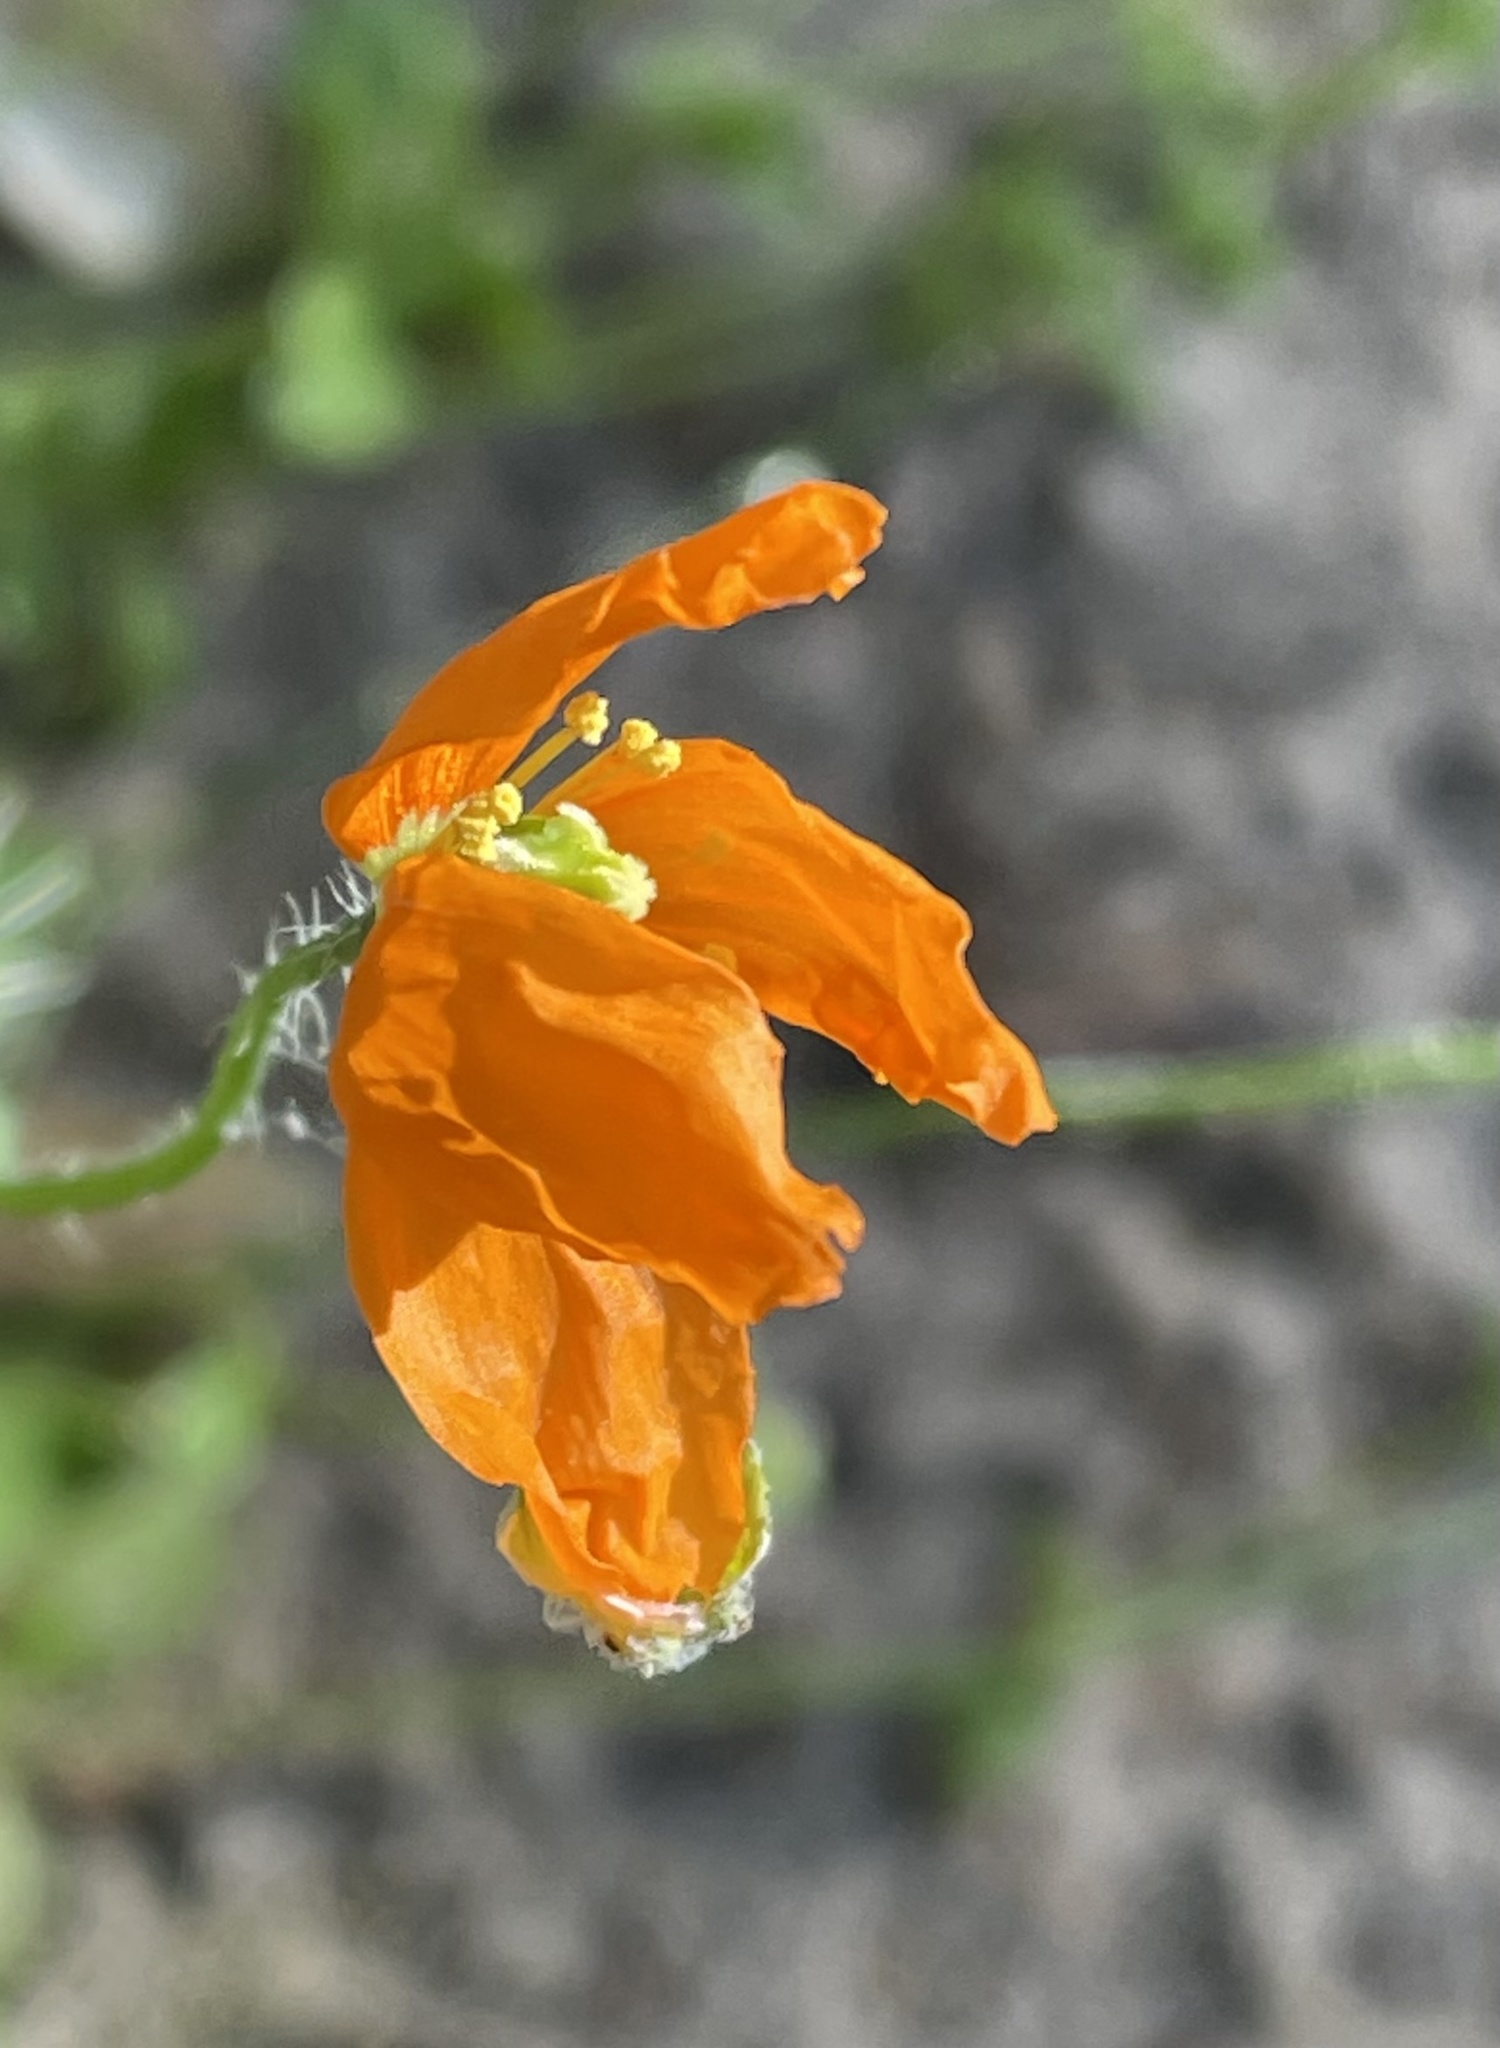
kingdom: Plantae
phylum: Tracheophyta
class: Magnoliopsida
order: Ranunculales
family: Papaveraceae
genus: Papaver
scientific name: Papaver californicum
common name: Fire poppy
